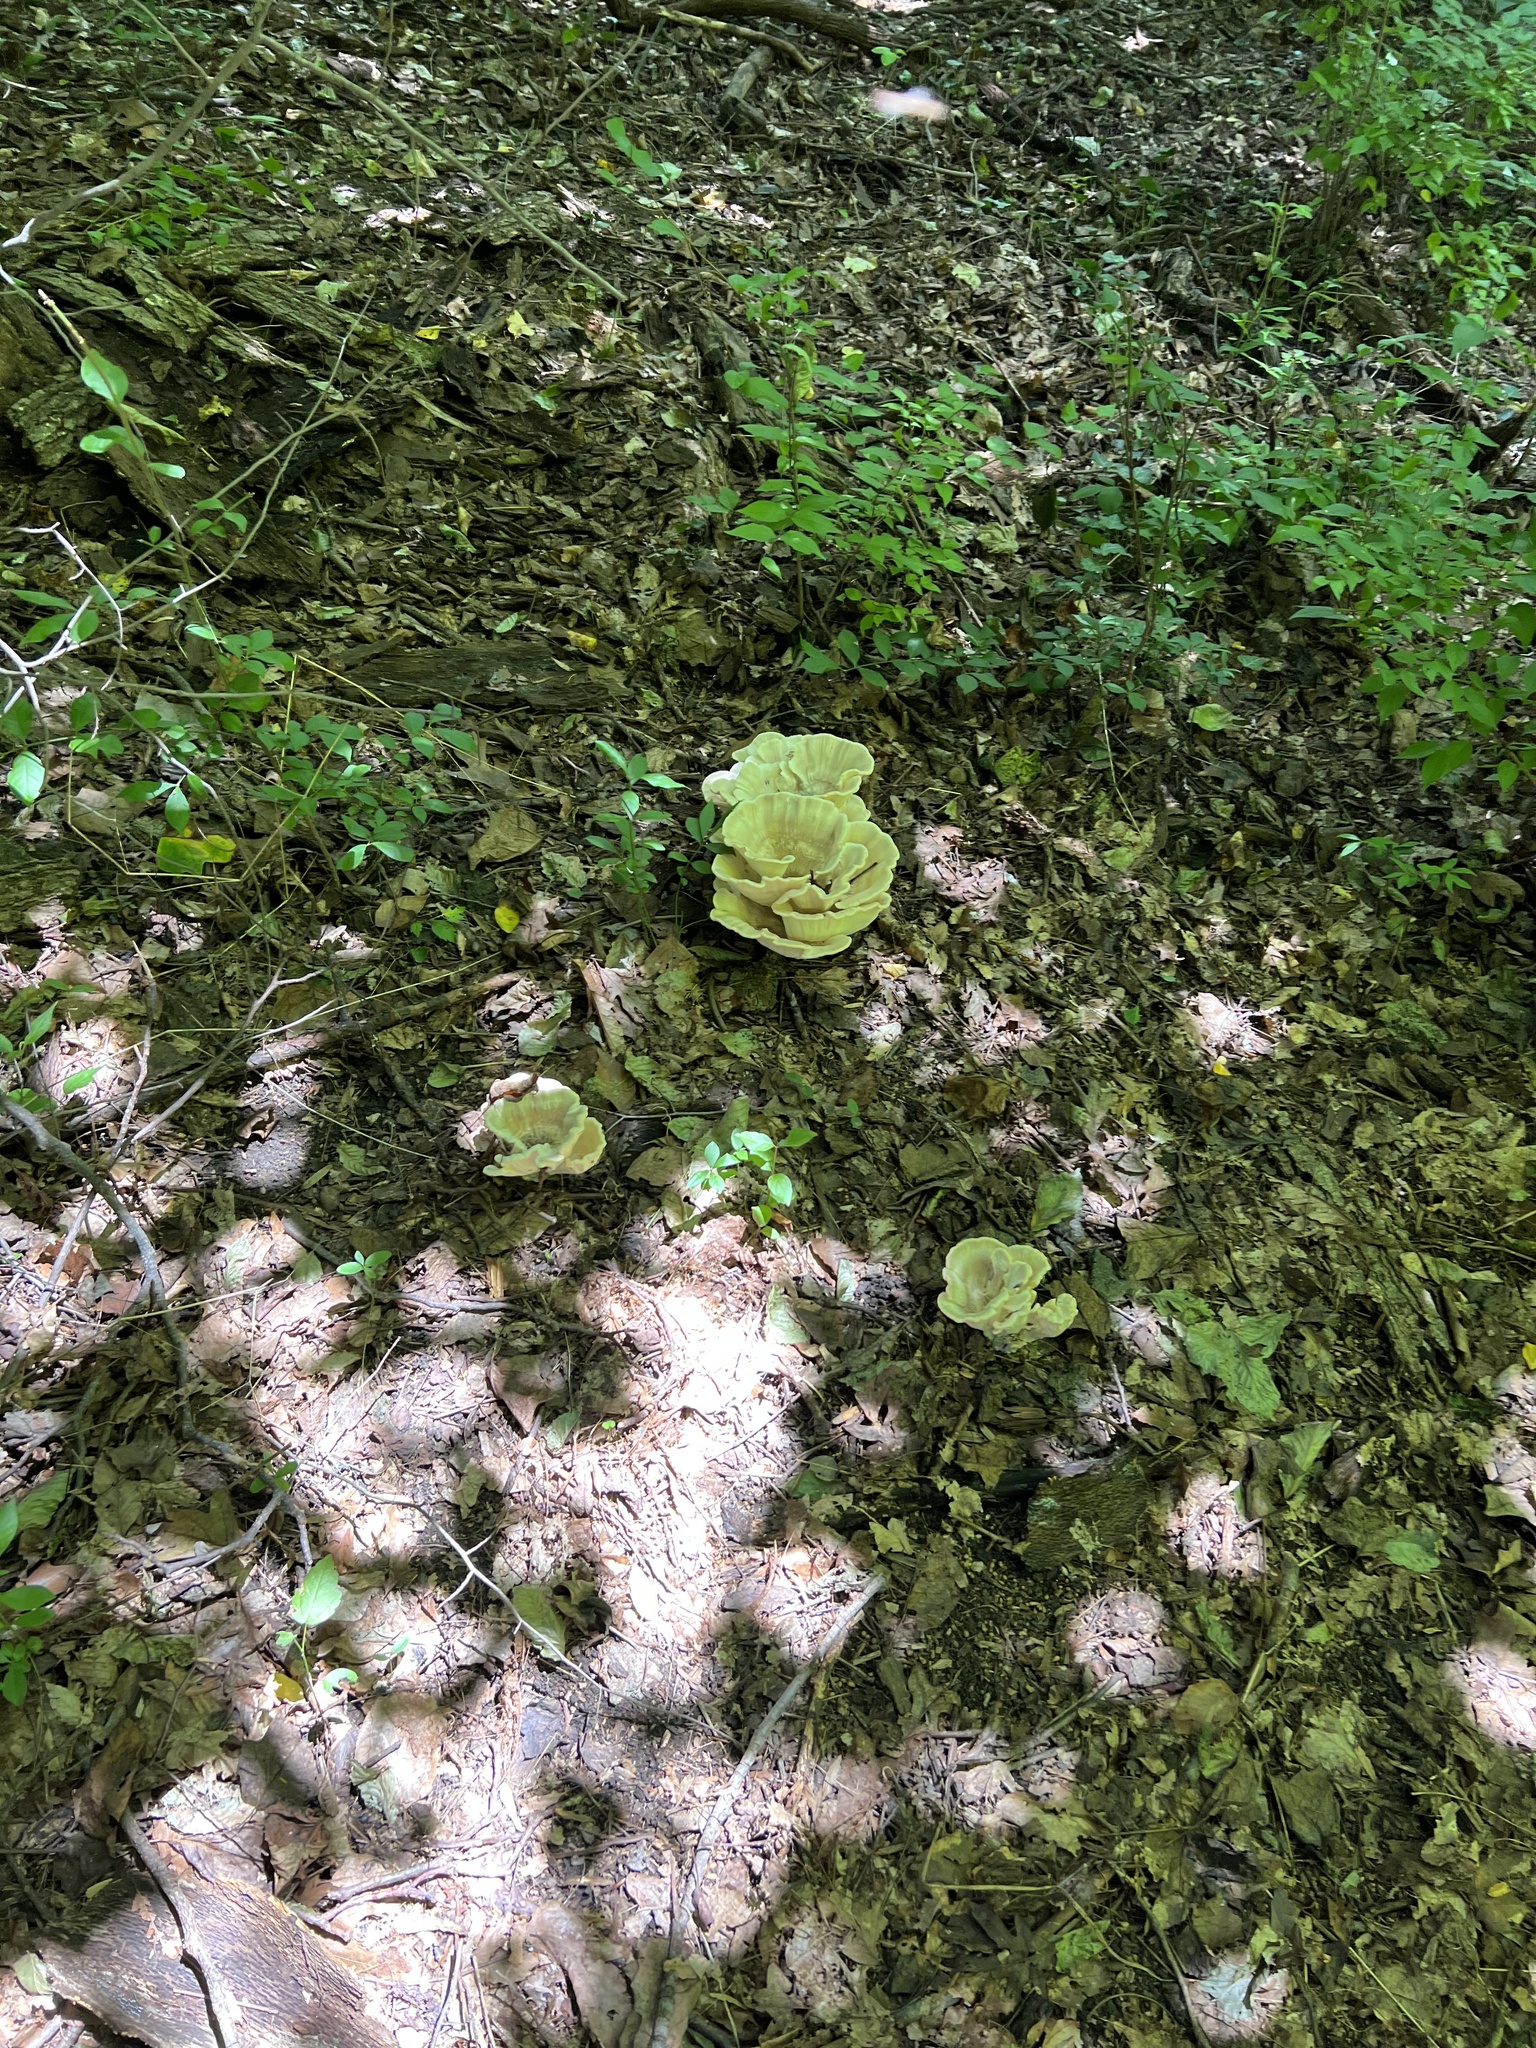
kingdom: Fungi
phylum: Basidiomycota
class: Agaricomycetes
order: Polyporales
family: Meripilaceae
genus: Meripilus
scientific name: Meripilus sumstinei
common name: Black-staining polypore
